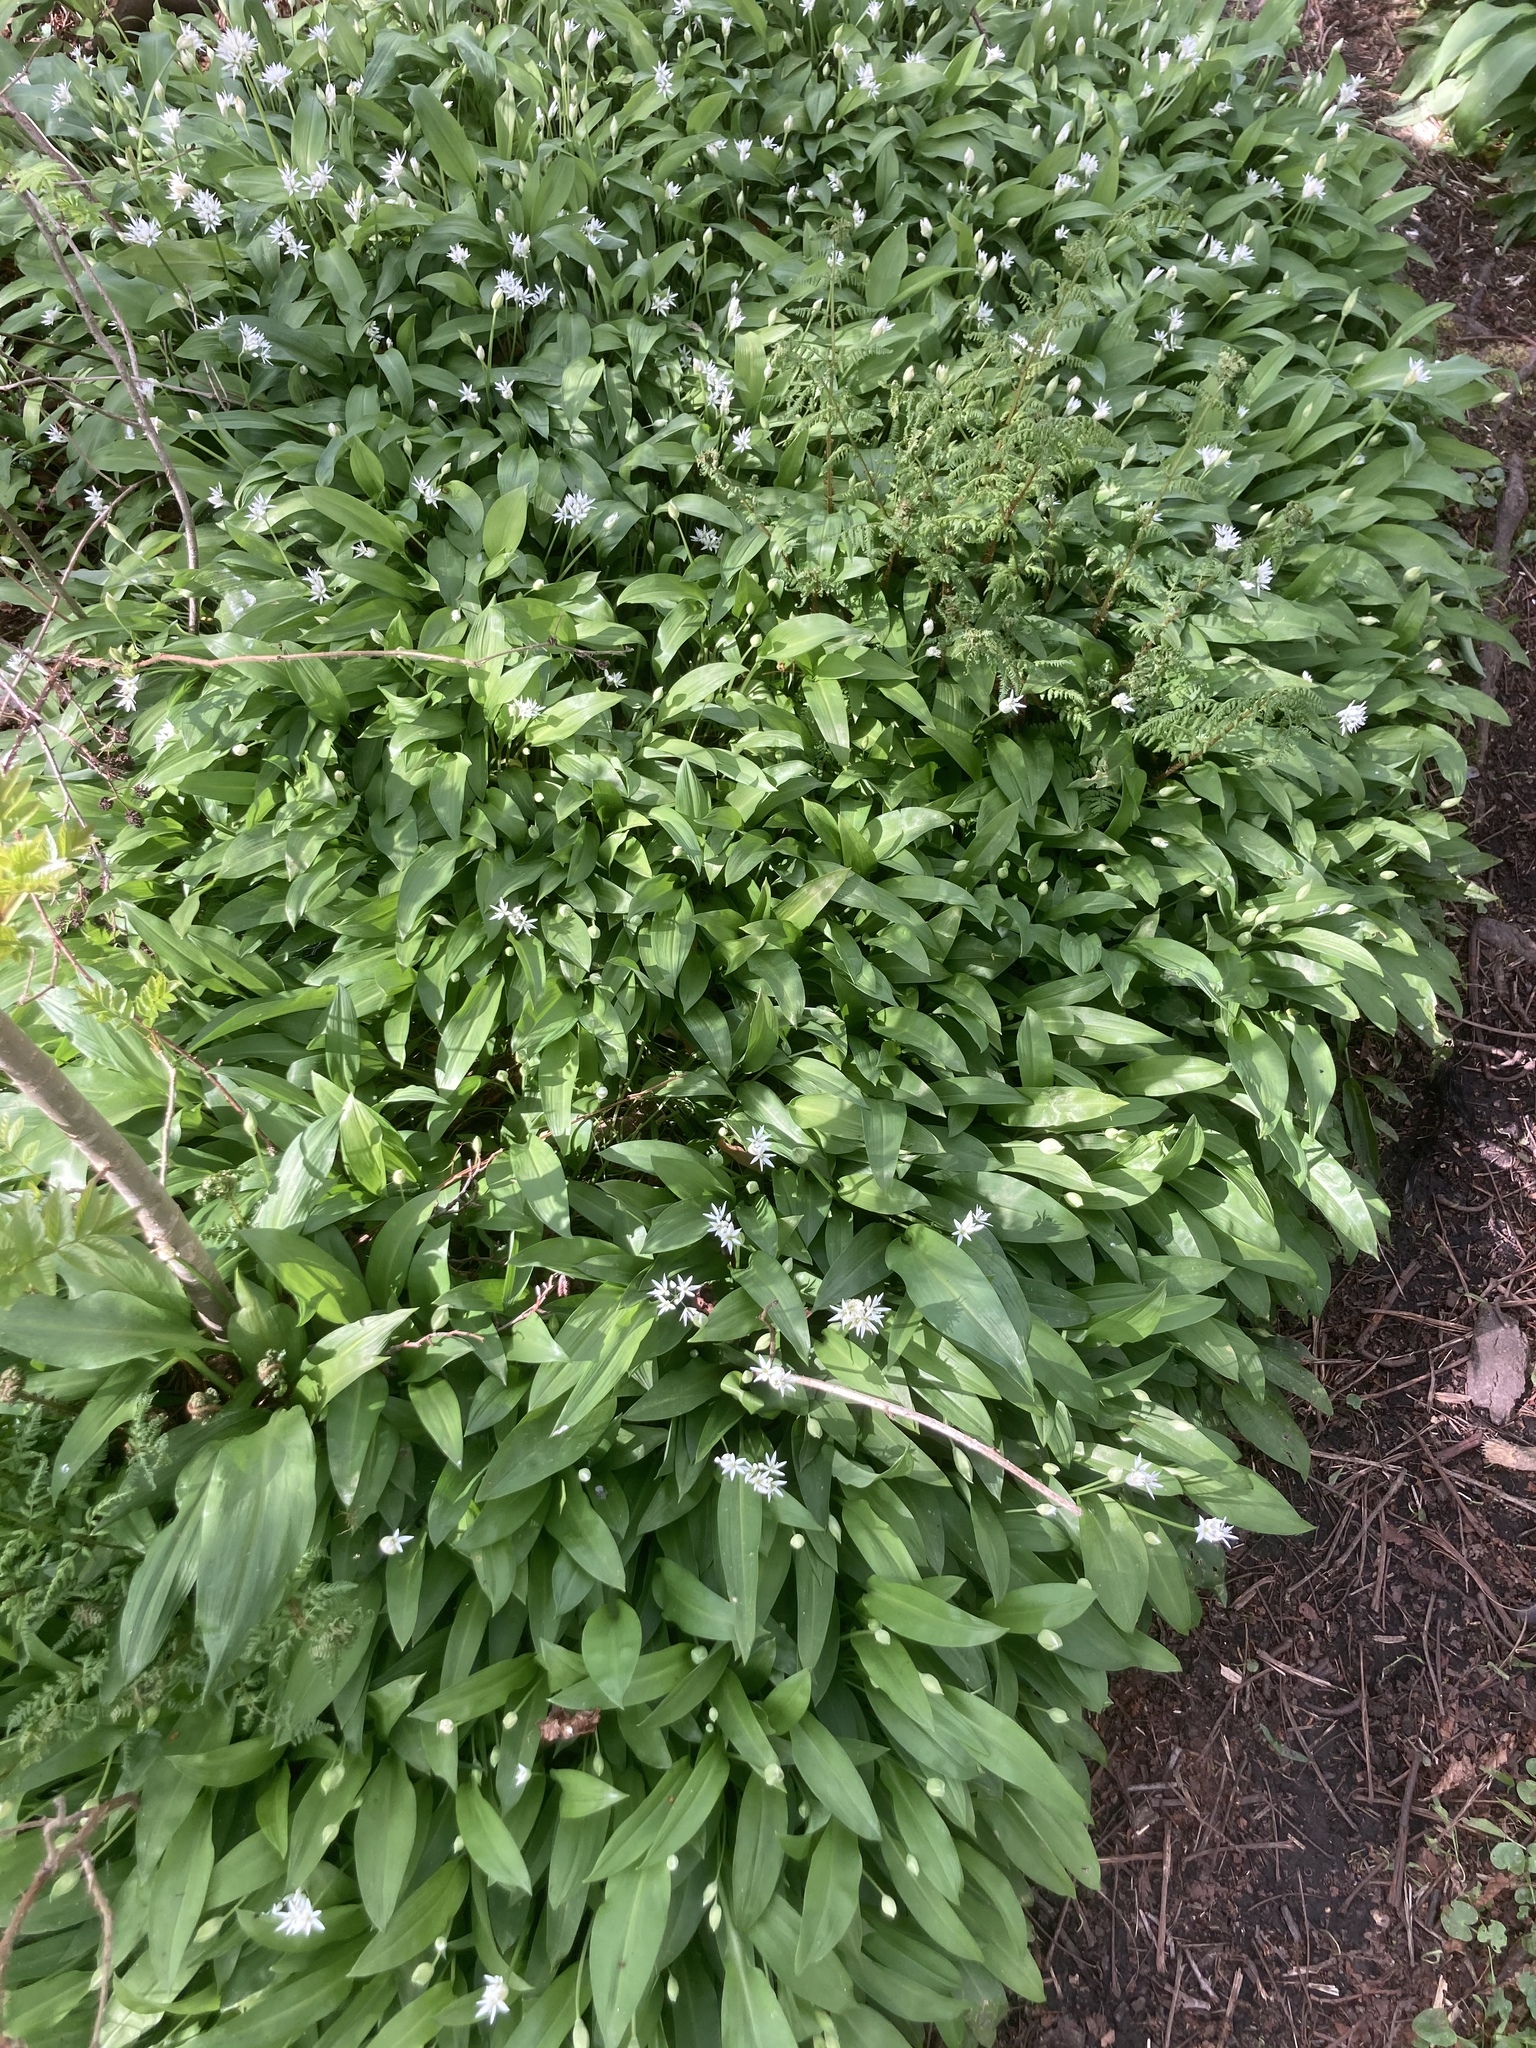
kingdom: Plantae
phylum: Tracheophyta
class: Liliopsida
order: Asparagales
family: Amaryllidaceae
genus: Allium
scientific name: Allium ursinum
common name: Ramsons
